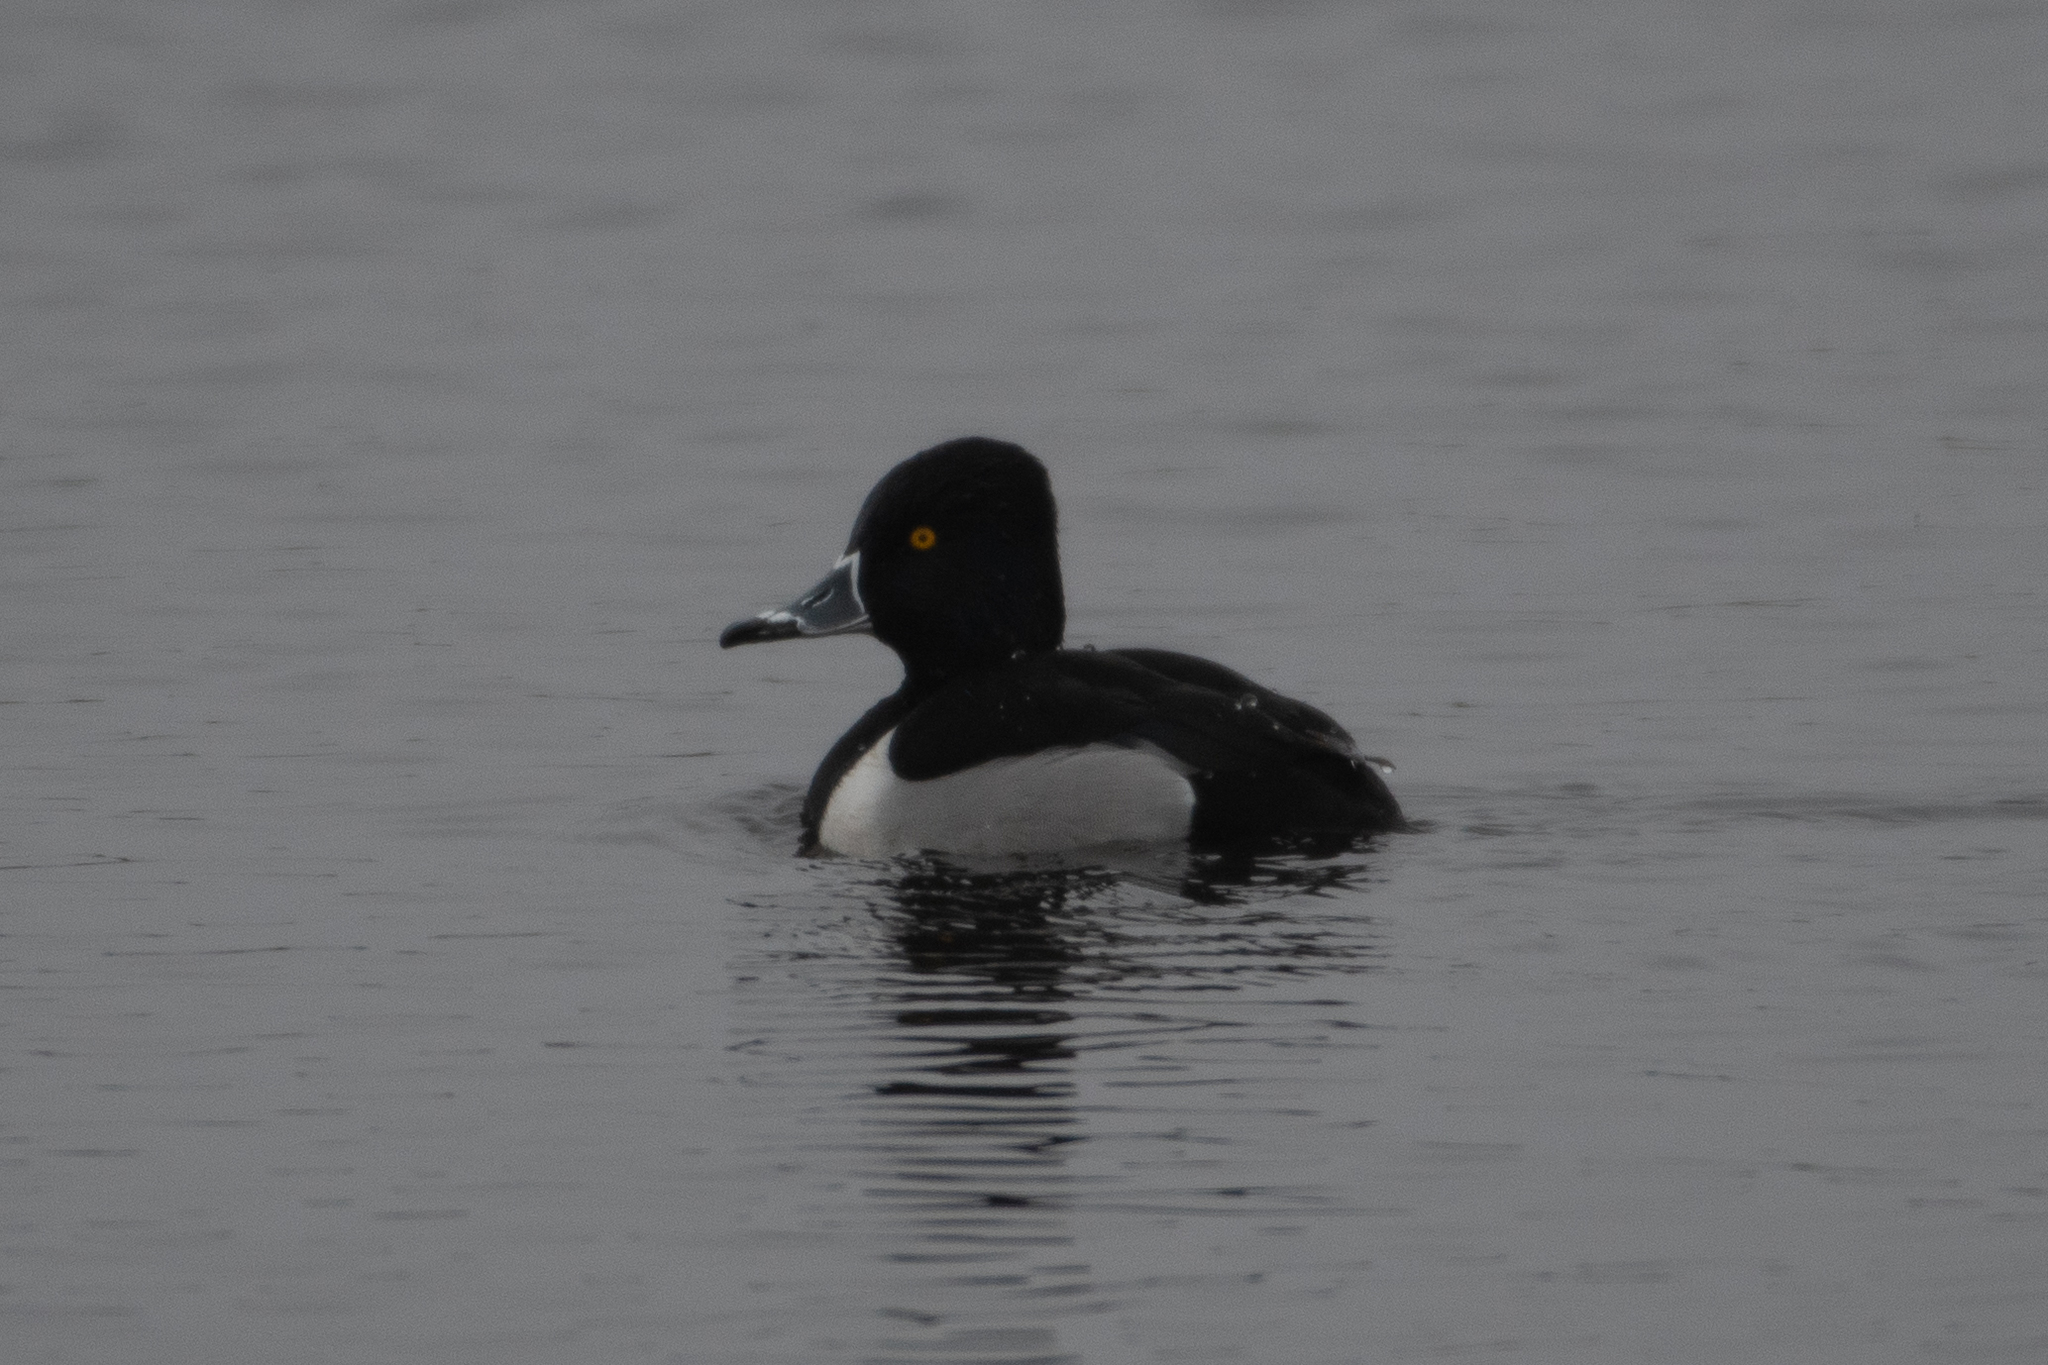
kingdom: Animalia
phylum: Chordata
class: Aves
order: Anseriformes
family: Anatidae
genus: Aythya
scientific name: Aythya collaris
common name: Ring-necked duck
